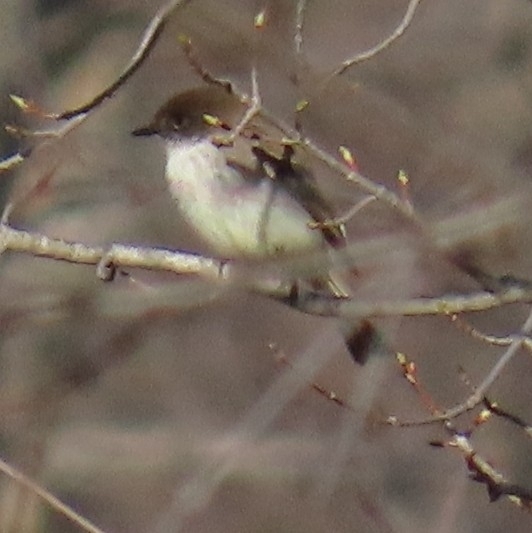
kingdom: Animalia
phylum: Chordata
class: Aves
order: Passeriformes
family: Tyrannidae
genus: Sayornis
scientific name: Sayornis phoebe
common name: Eastern phoebe
